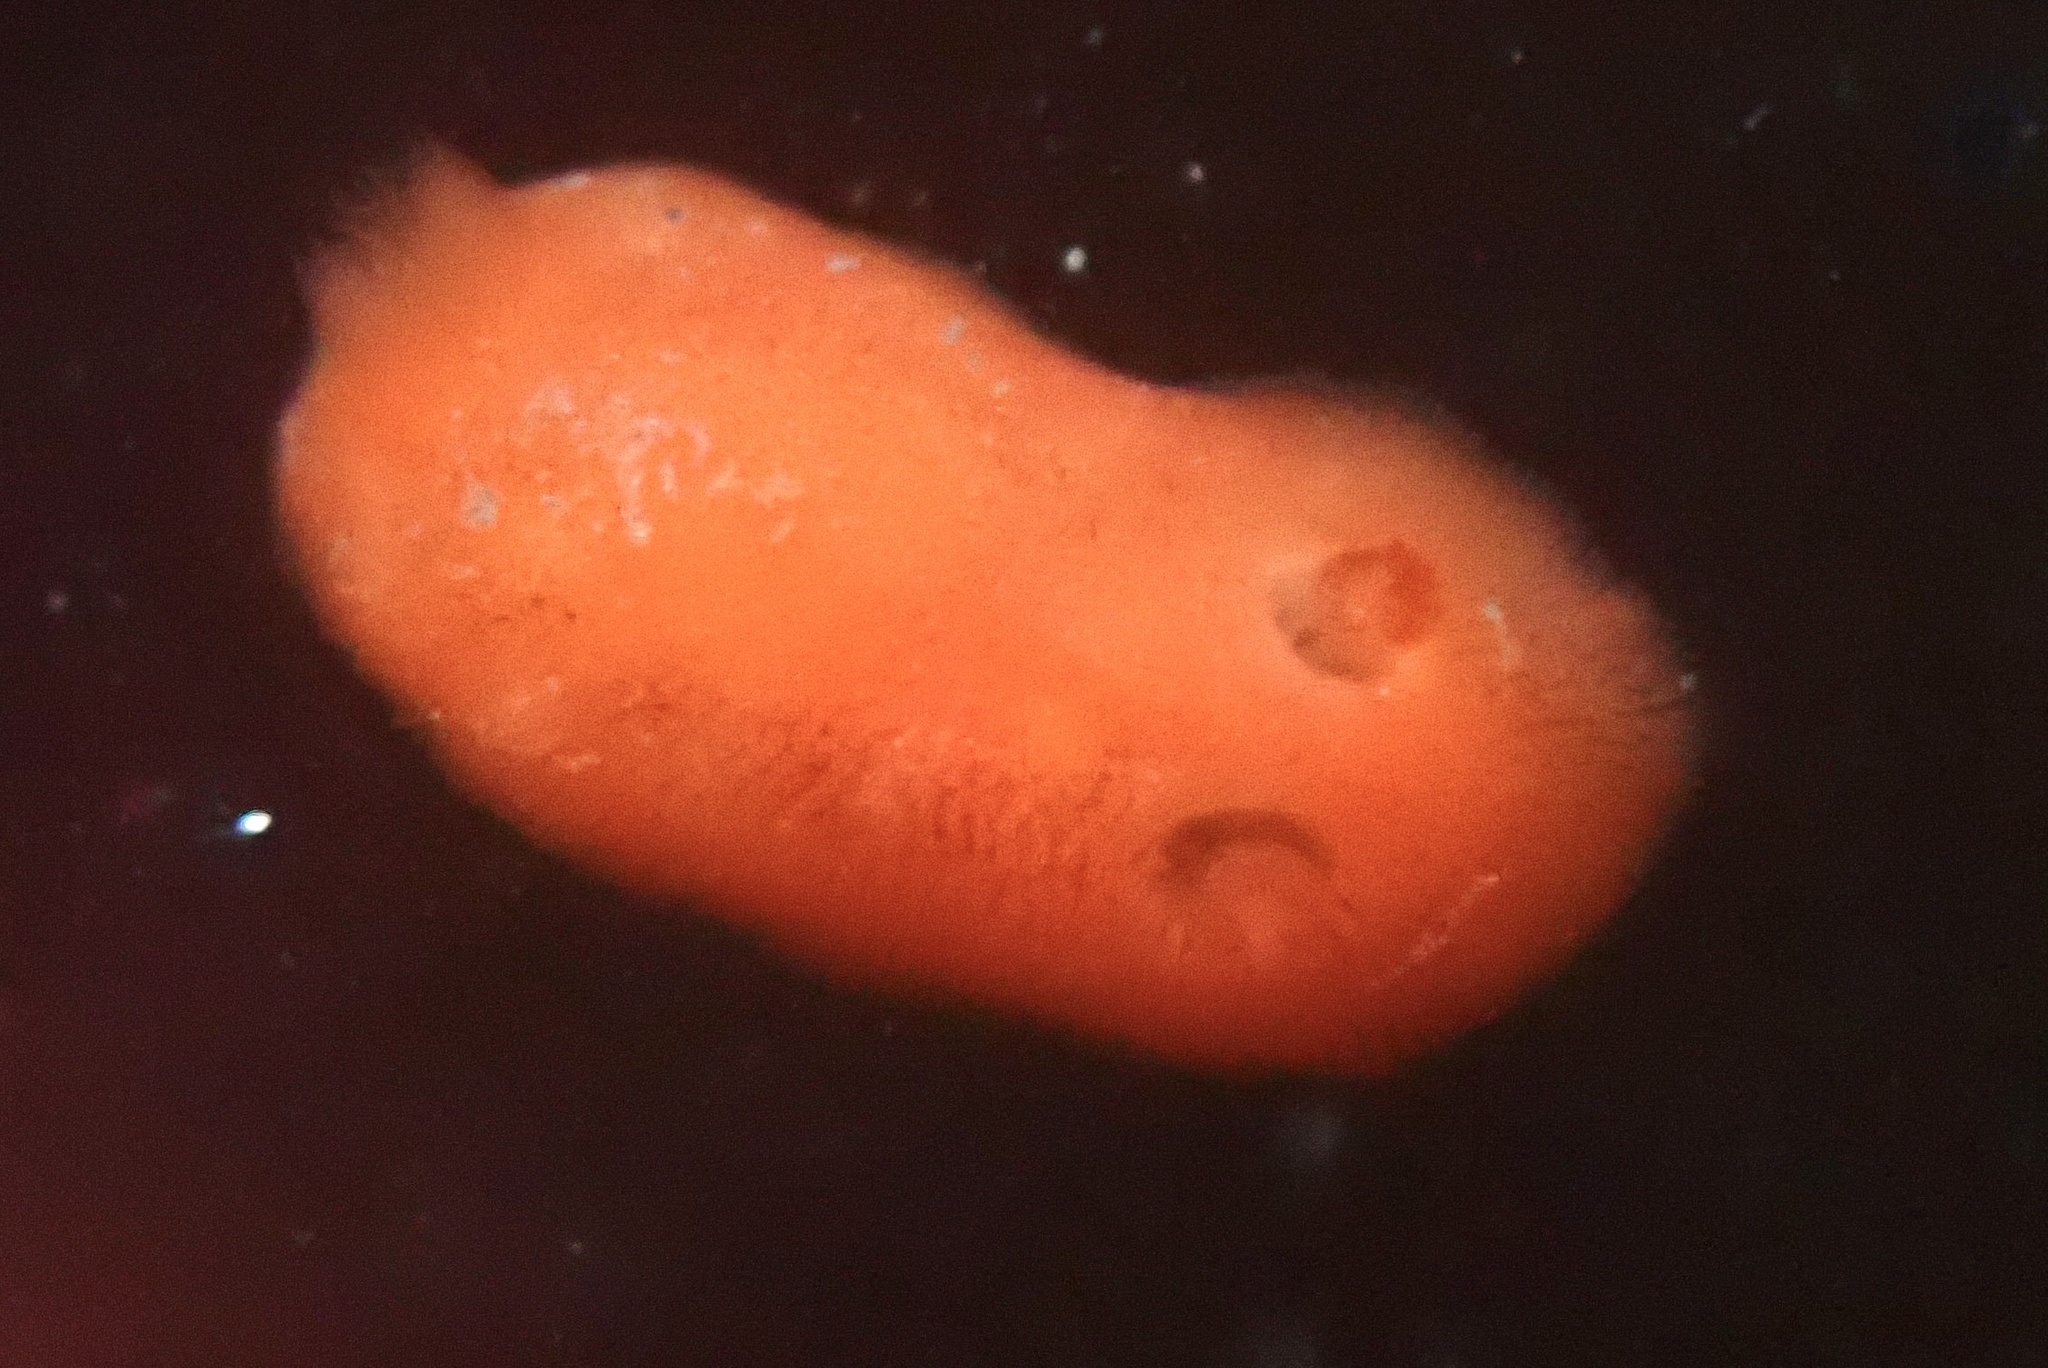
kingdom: Animalia
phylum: Mollusca
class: Gastropoda
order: Nudibranchia
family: Discodorididae
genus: Rostanga
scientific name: Rostanga pulchra
